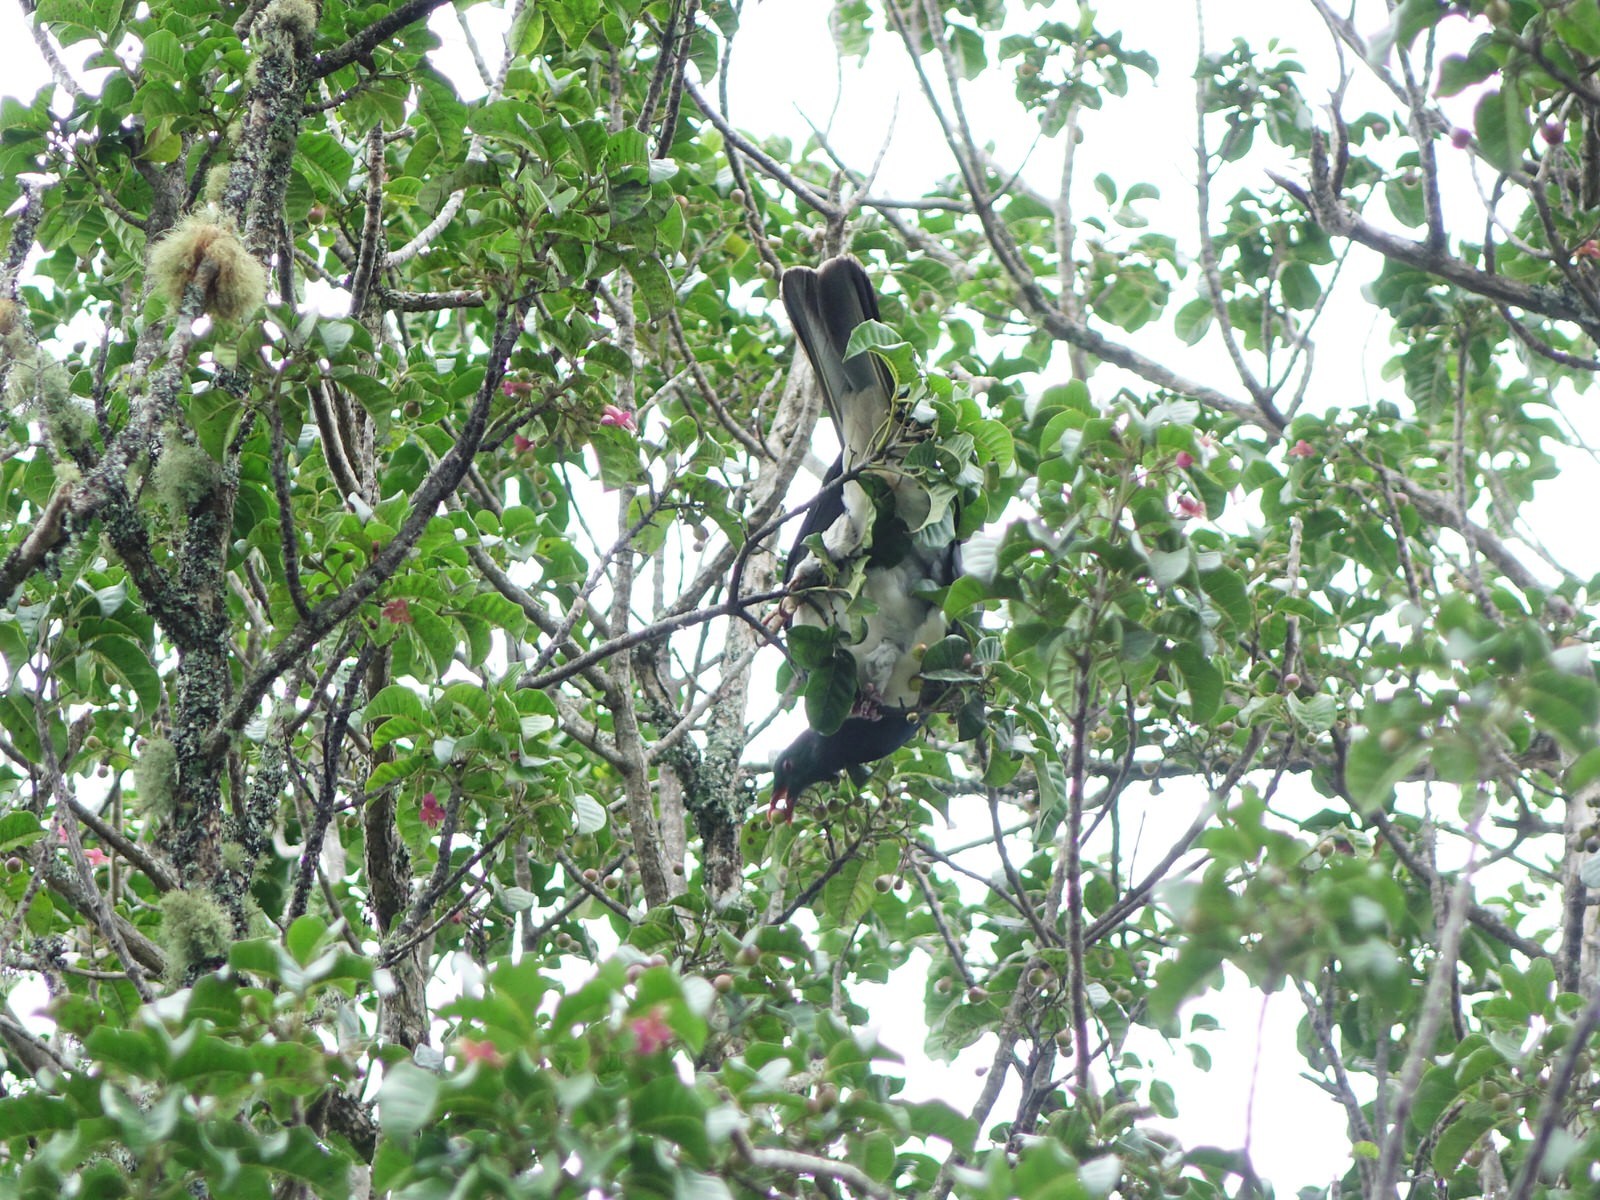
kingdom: Animalia
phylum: Chordata
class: Aves
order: Columbiformes
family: Columbidae
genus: Hemiphaga
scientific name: Hemiphaga novaeseelandiae
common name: New zealand pigeon
